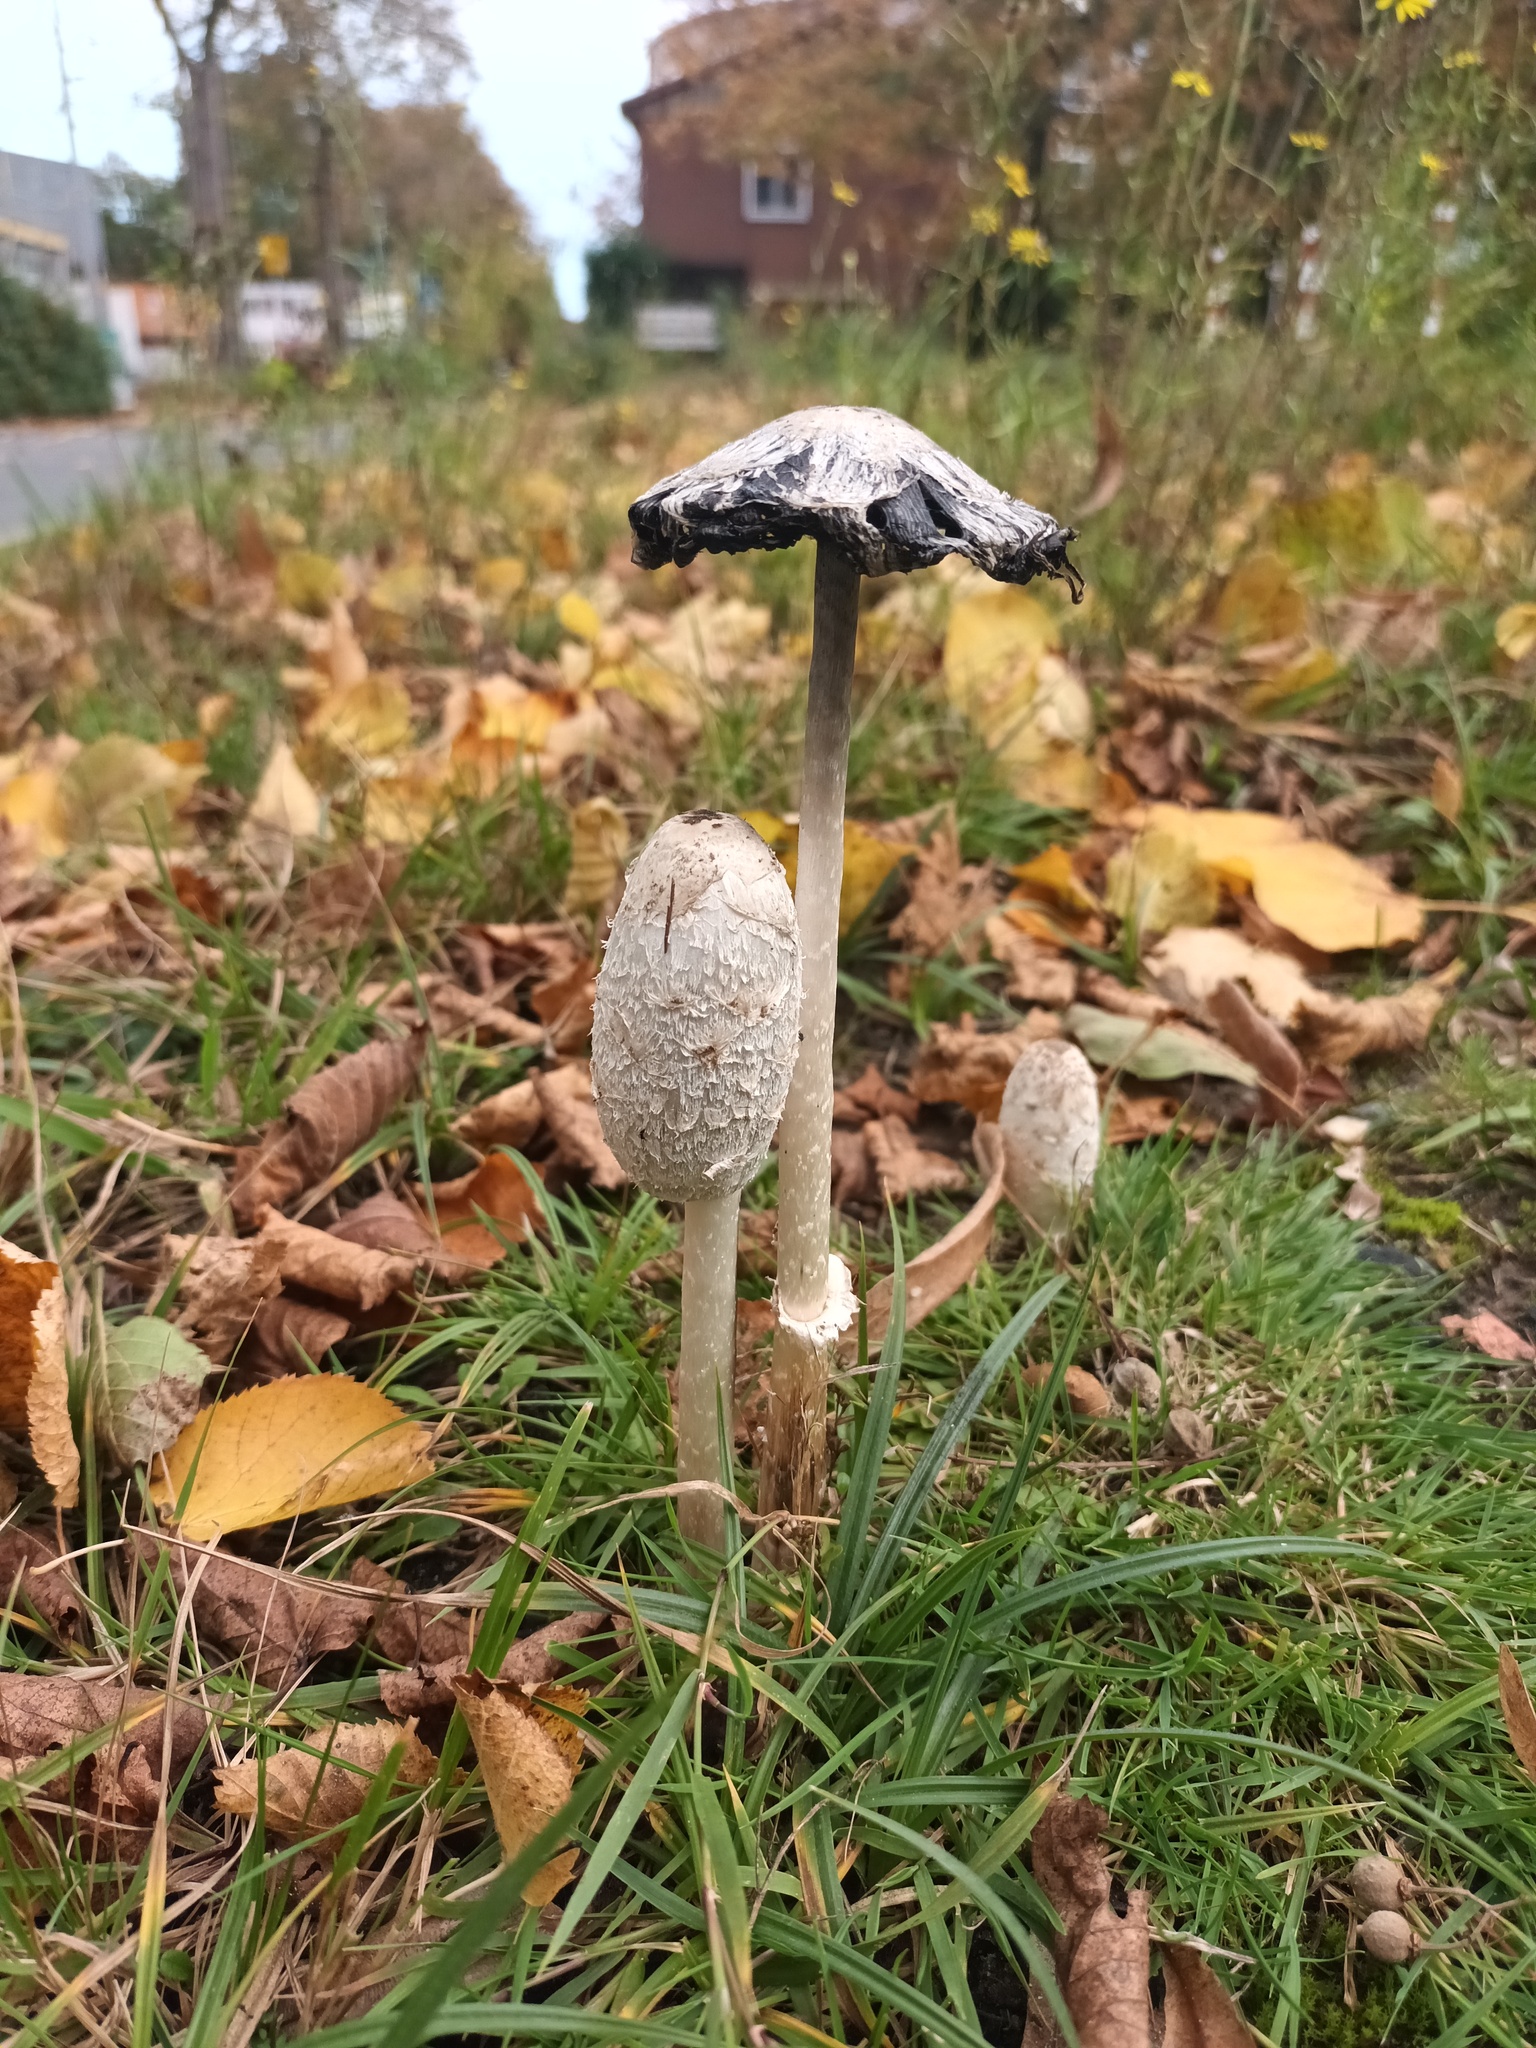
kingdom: Fungi
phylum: Basidiomycota
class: Agaricomycetes
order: Agaricales
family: Agaricaceae
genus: Coprinus
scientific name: Coprinus comatus
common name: Lawyer's wig
